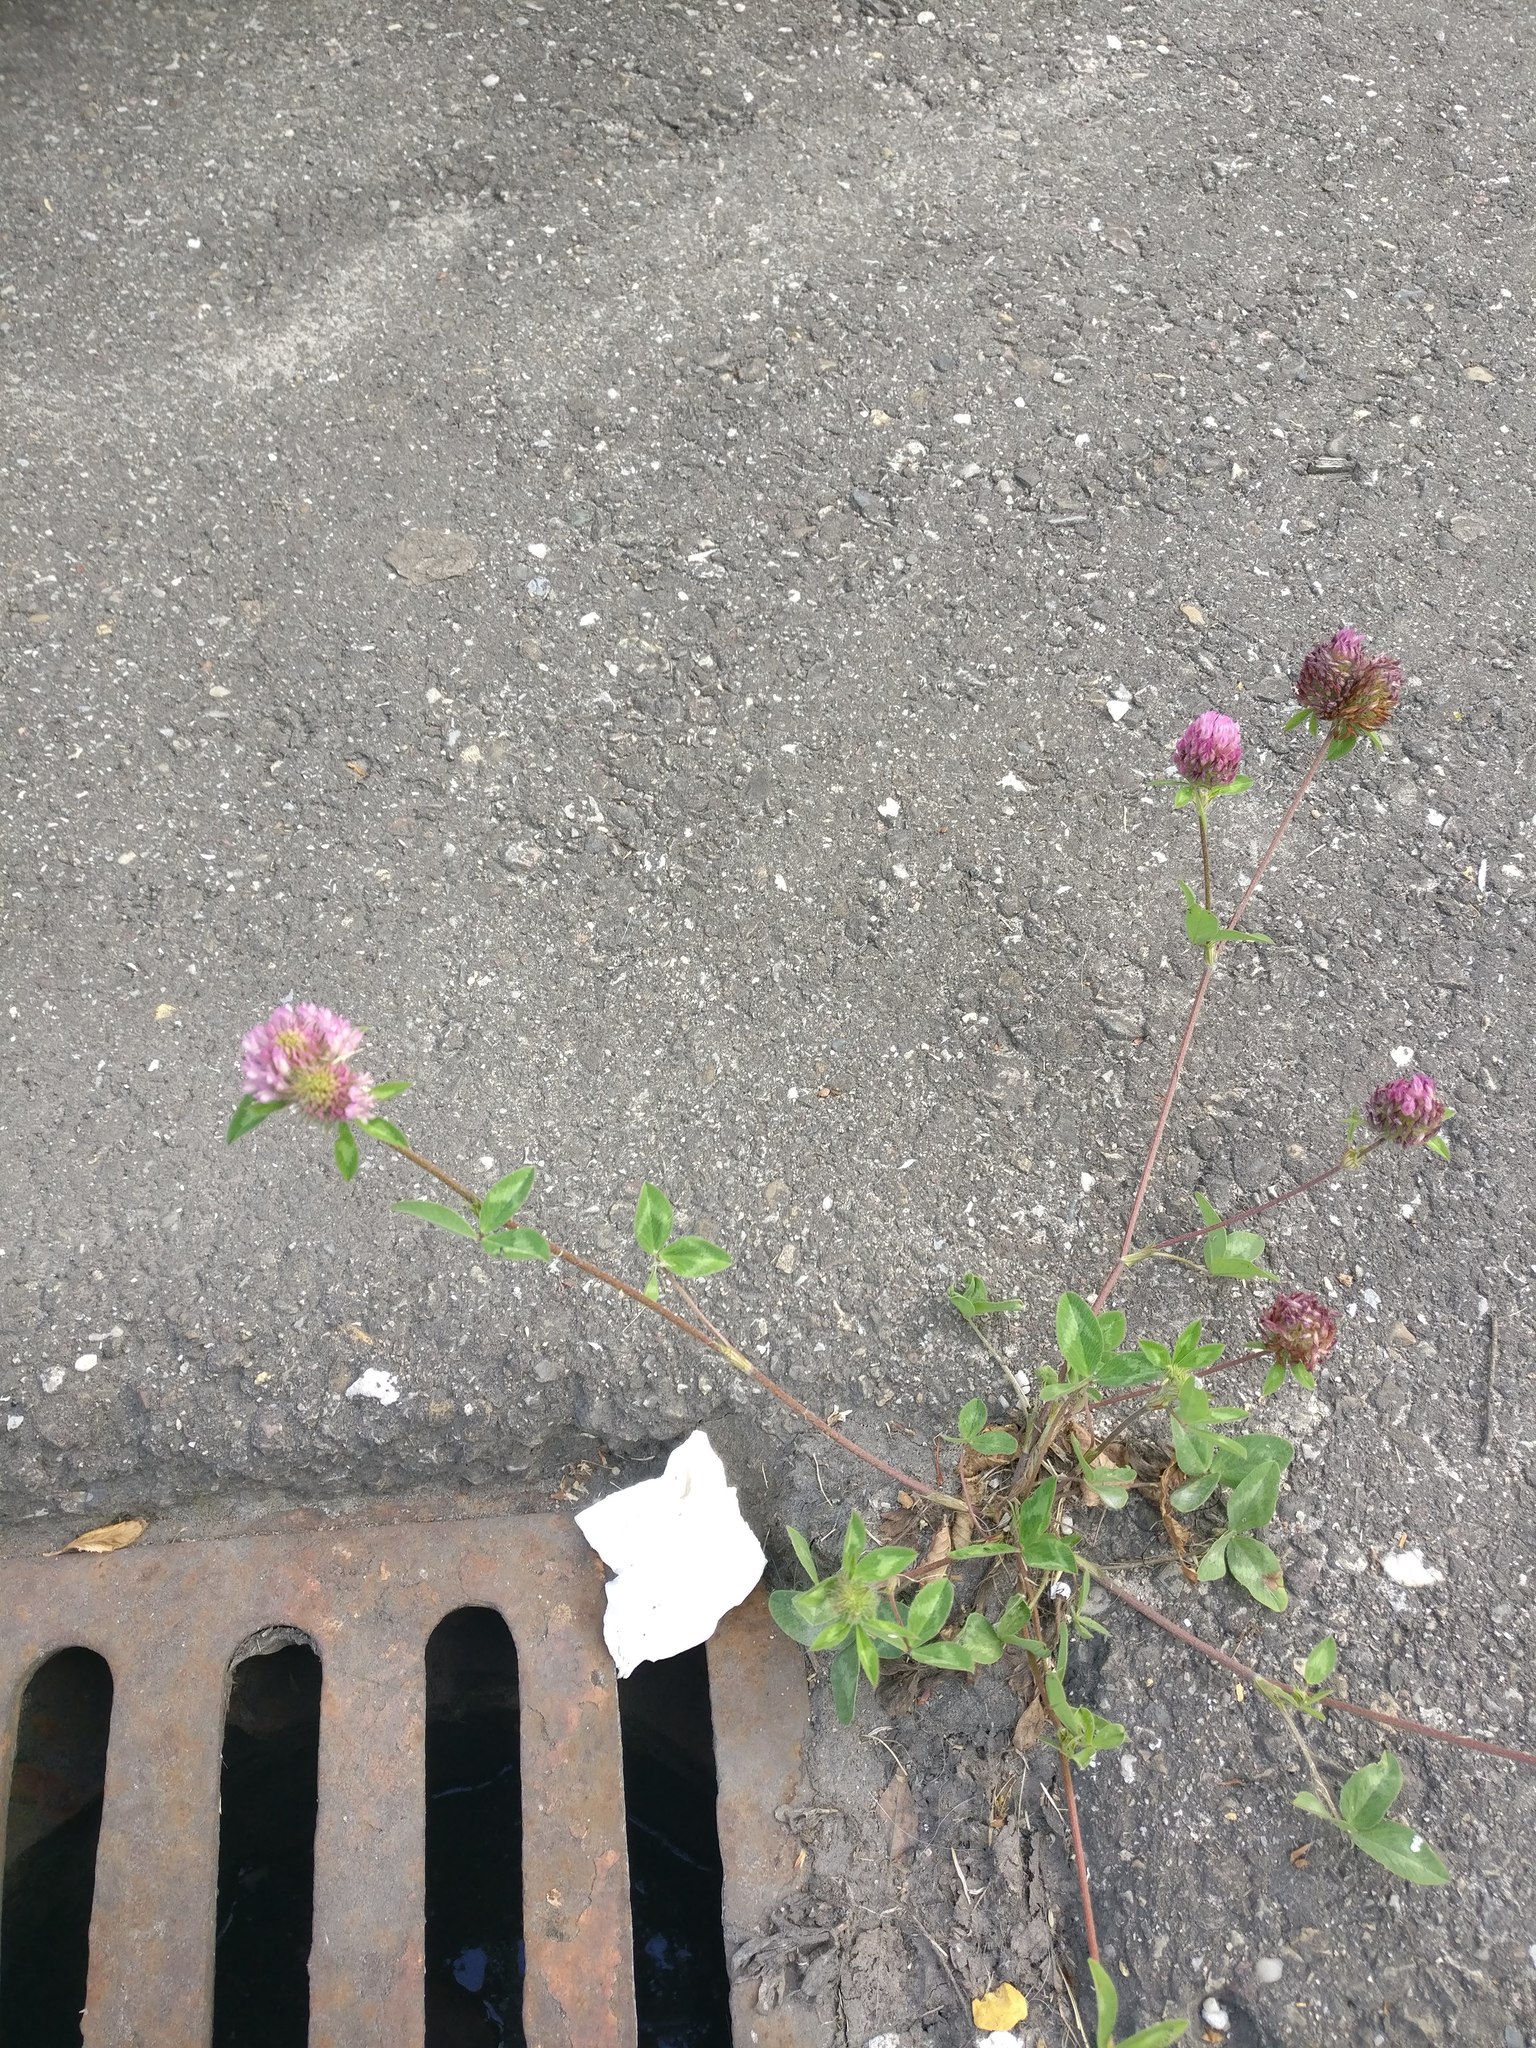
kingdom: Plantae
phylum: Tracheophyta
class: Magnoliopsida
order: Fabales
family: Fabaceae
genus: Trifolium
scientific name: Trifolium pratense
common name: Red clover
